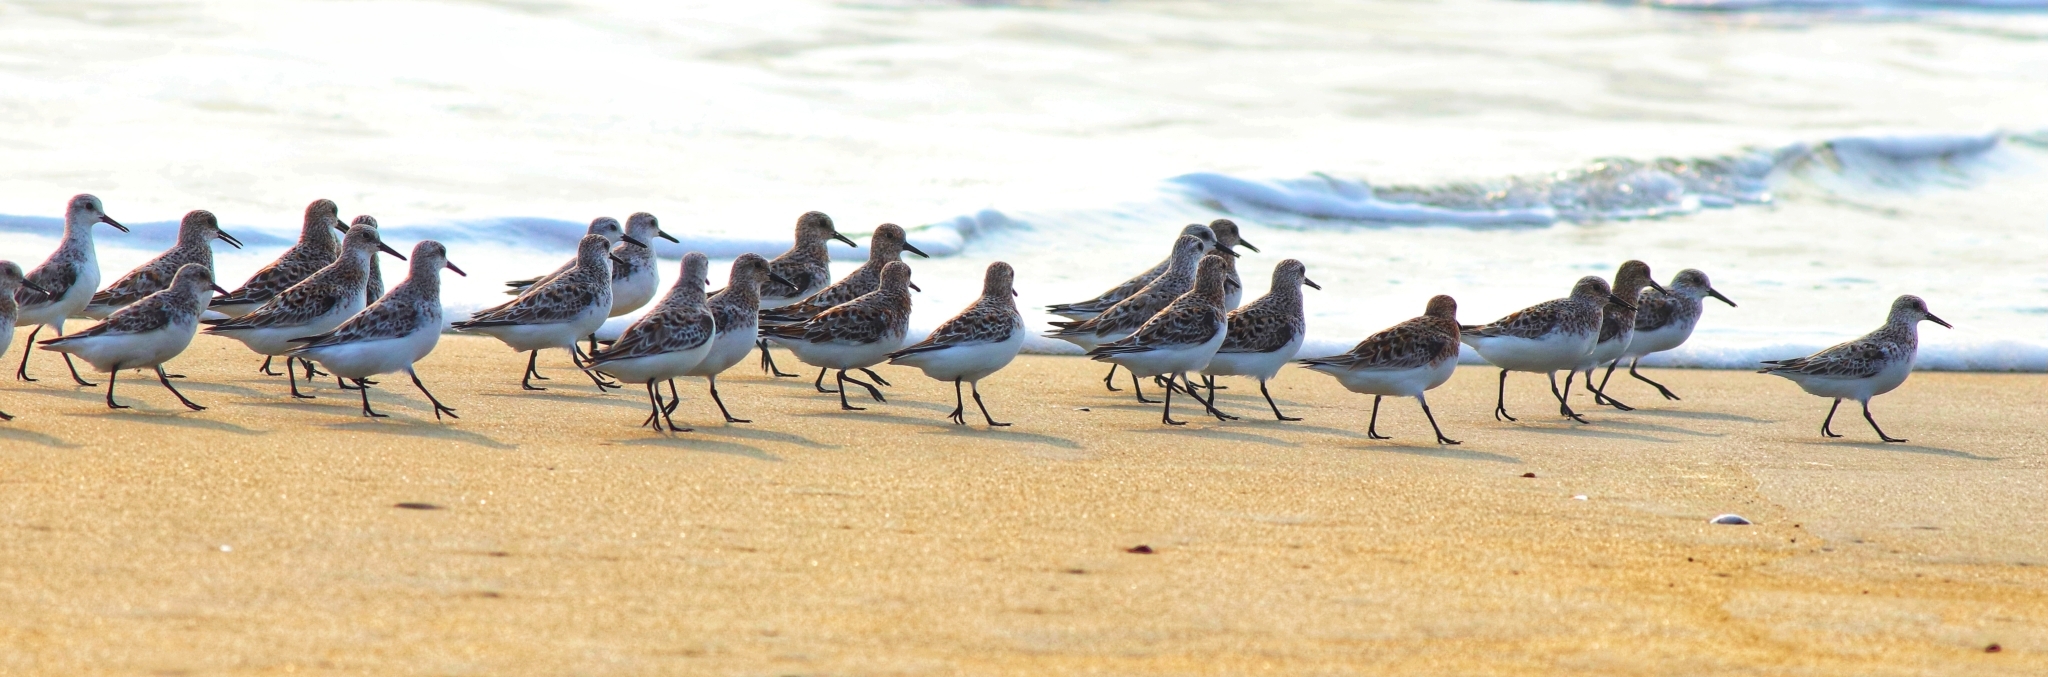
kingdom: Animalia
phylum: Chordata
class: Aves
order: Charadriiformes
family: Scolopacidae
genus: Calidris
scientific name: Calidris alba
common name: Sanderling
